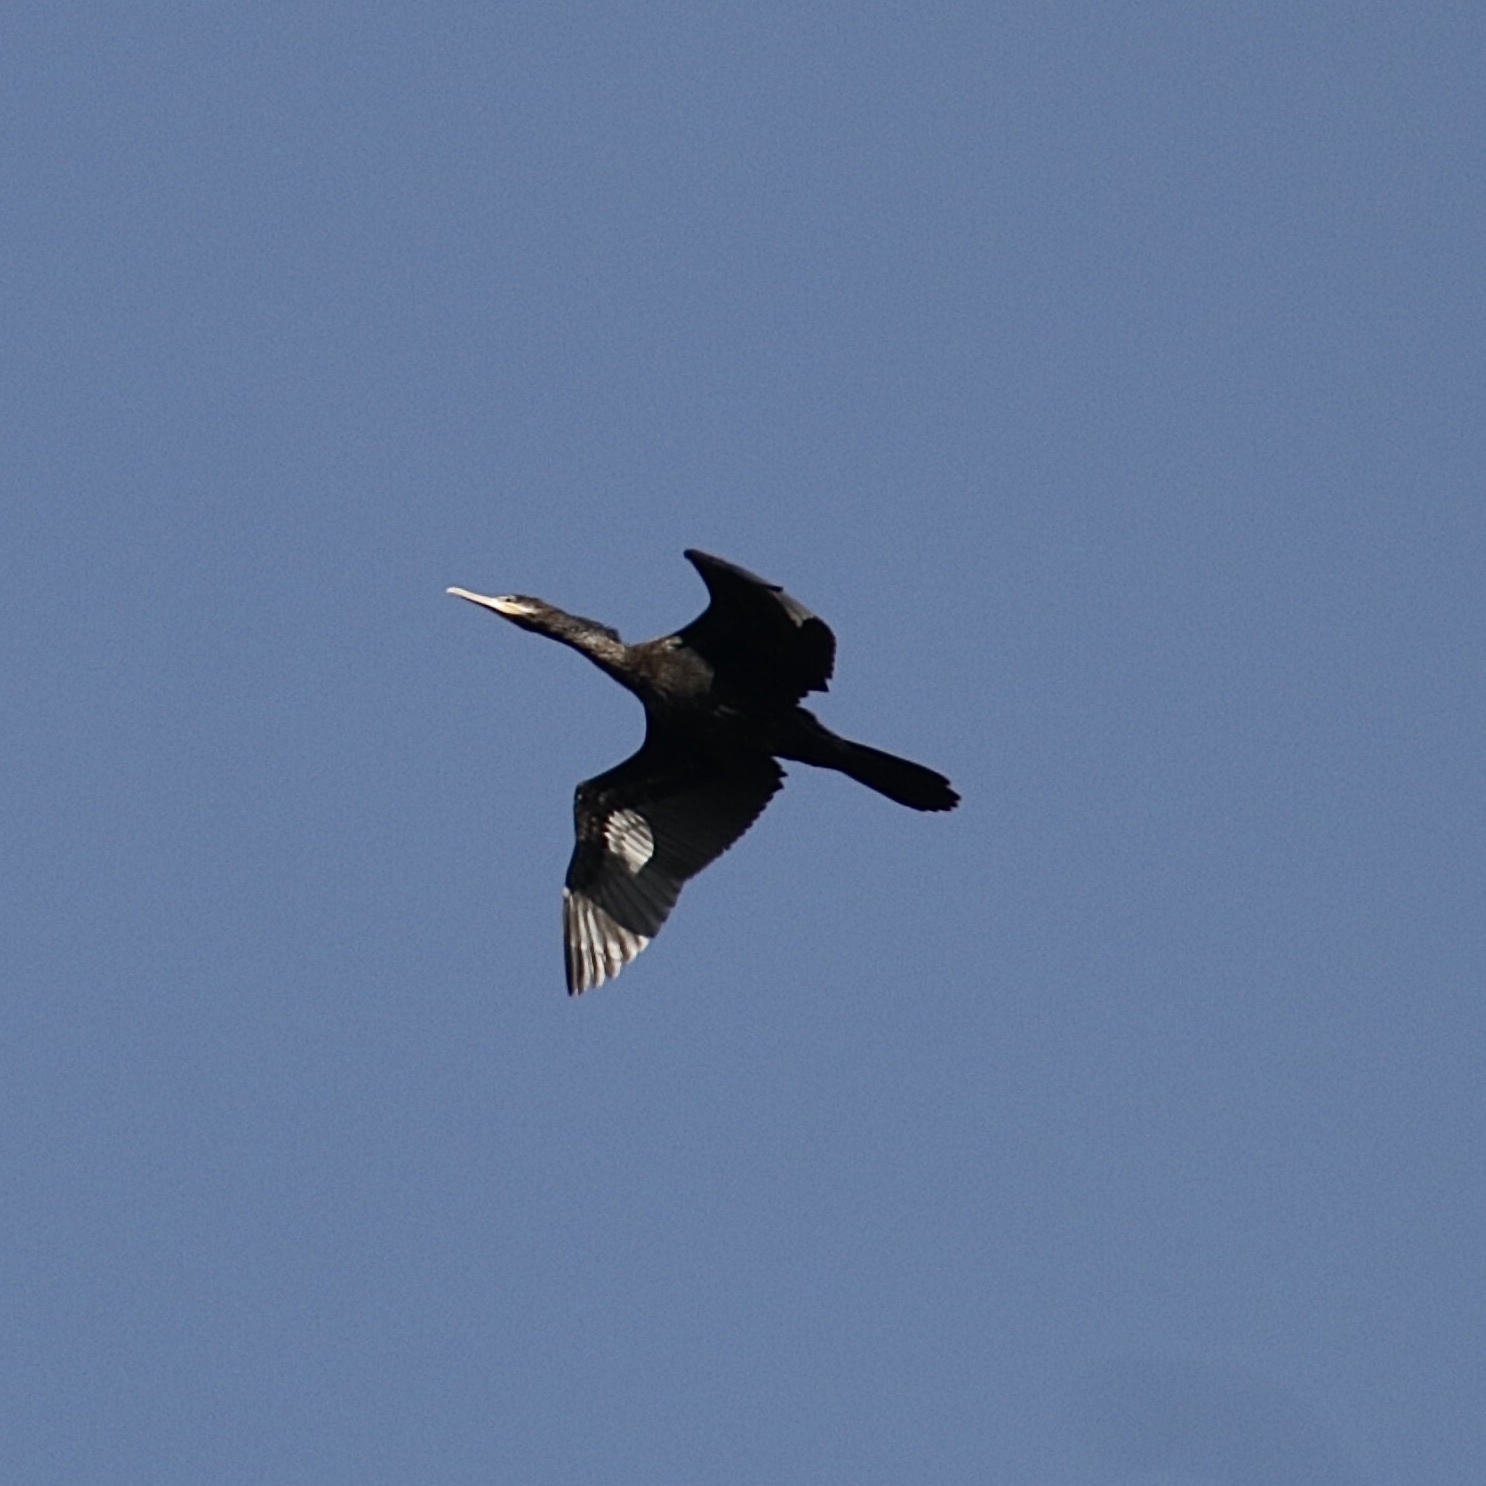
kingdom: Animalia
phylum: Chordata
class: Aves
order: Suliformes
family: Phalacrocoracidae
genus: Phalacrocorax
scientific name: Phalacrocorax brasilianus
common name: Neotropic cormorant
